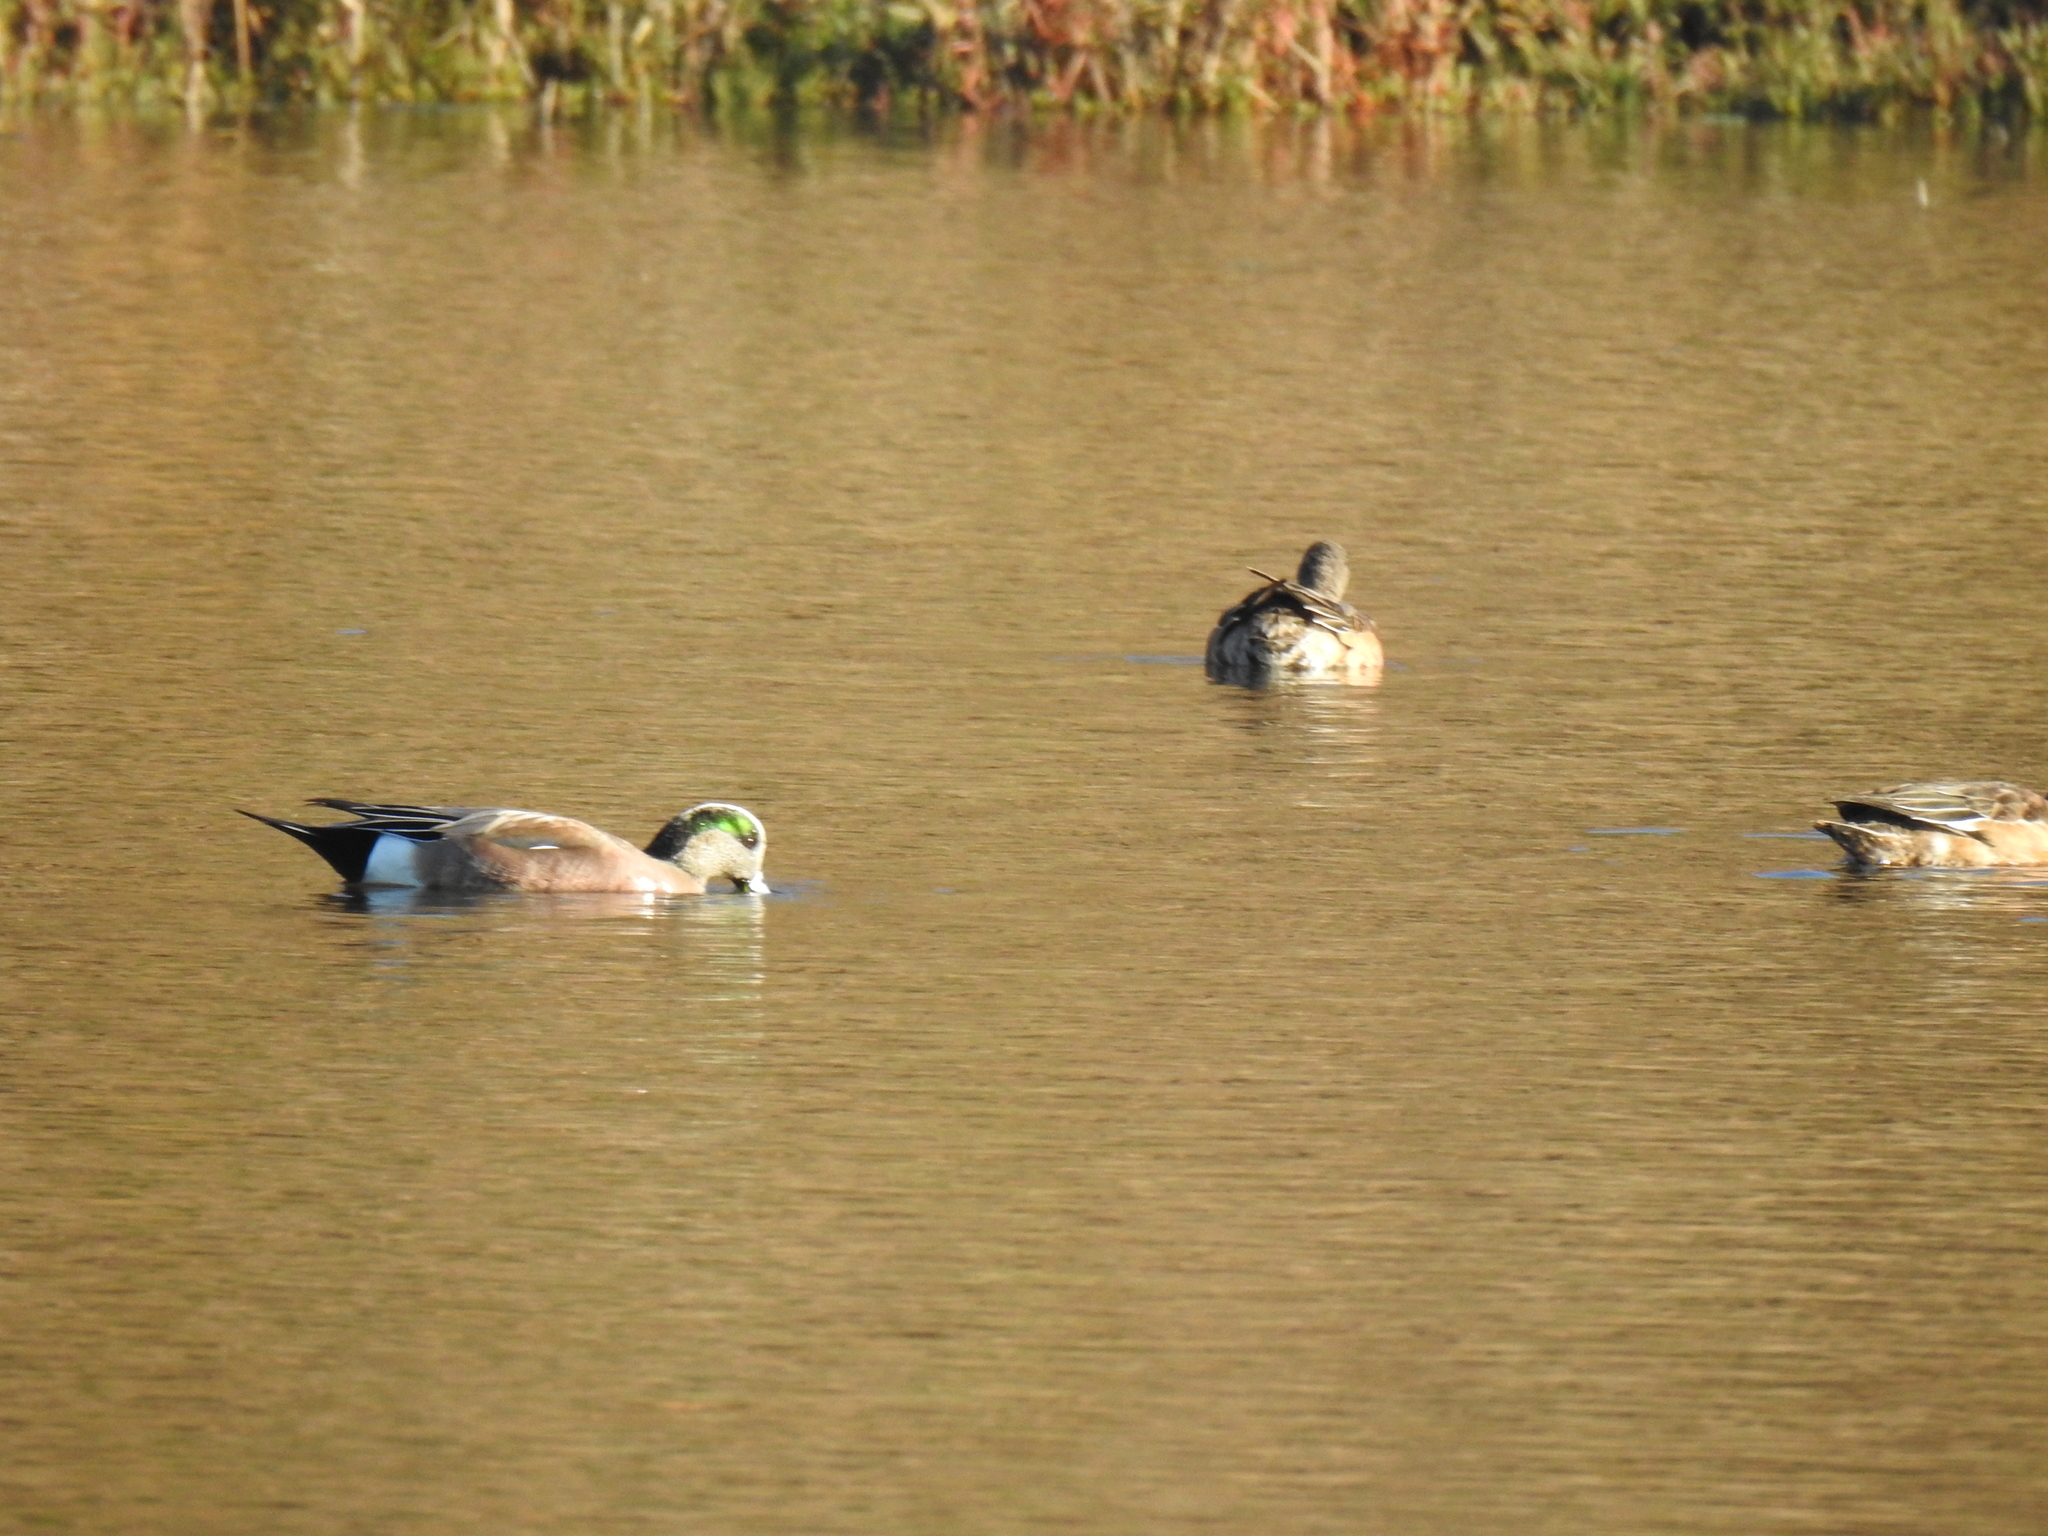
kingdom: Animalia
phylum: Chordata
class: Aves
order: Anseriformes
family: Anatidae
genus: Mareca
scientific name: Mareca americana
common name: American wigeon
